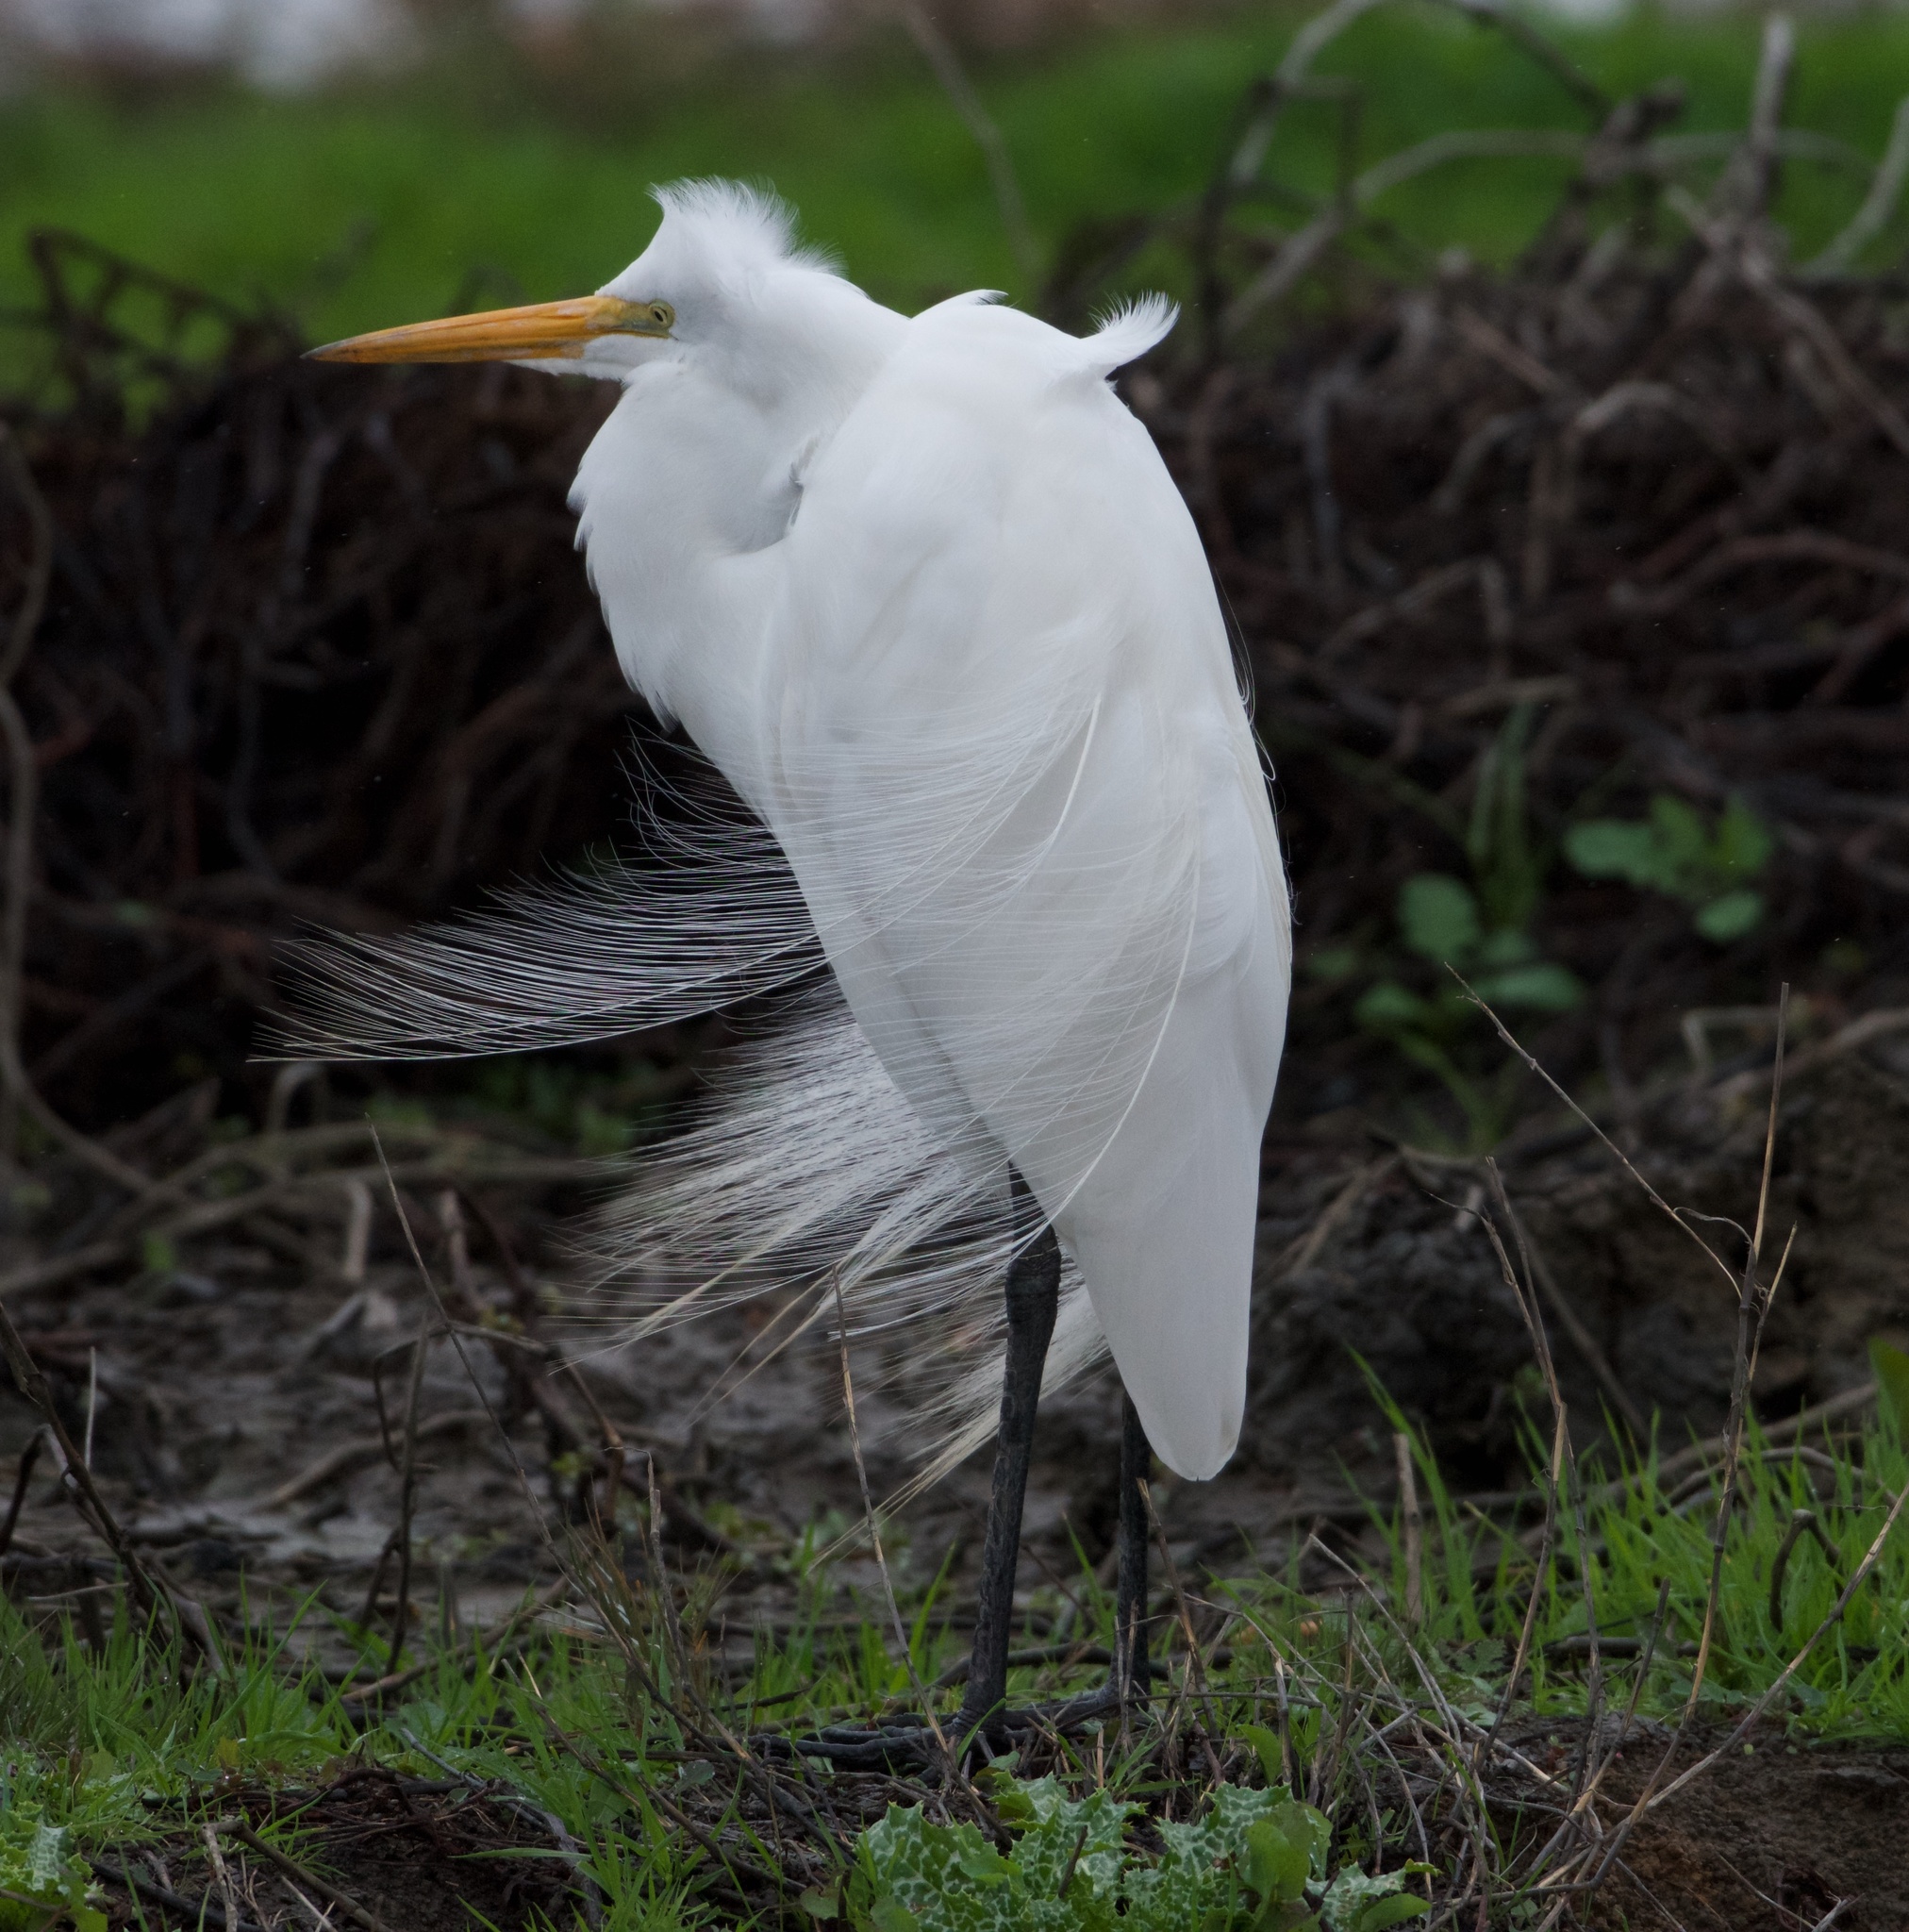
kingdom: Animalia
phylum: Chordata
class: Aves
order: Pelecaniformes
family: Ardeidae
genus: Ardea
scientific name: Ardea alba
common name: Great egret
